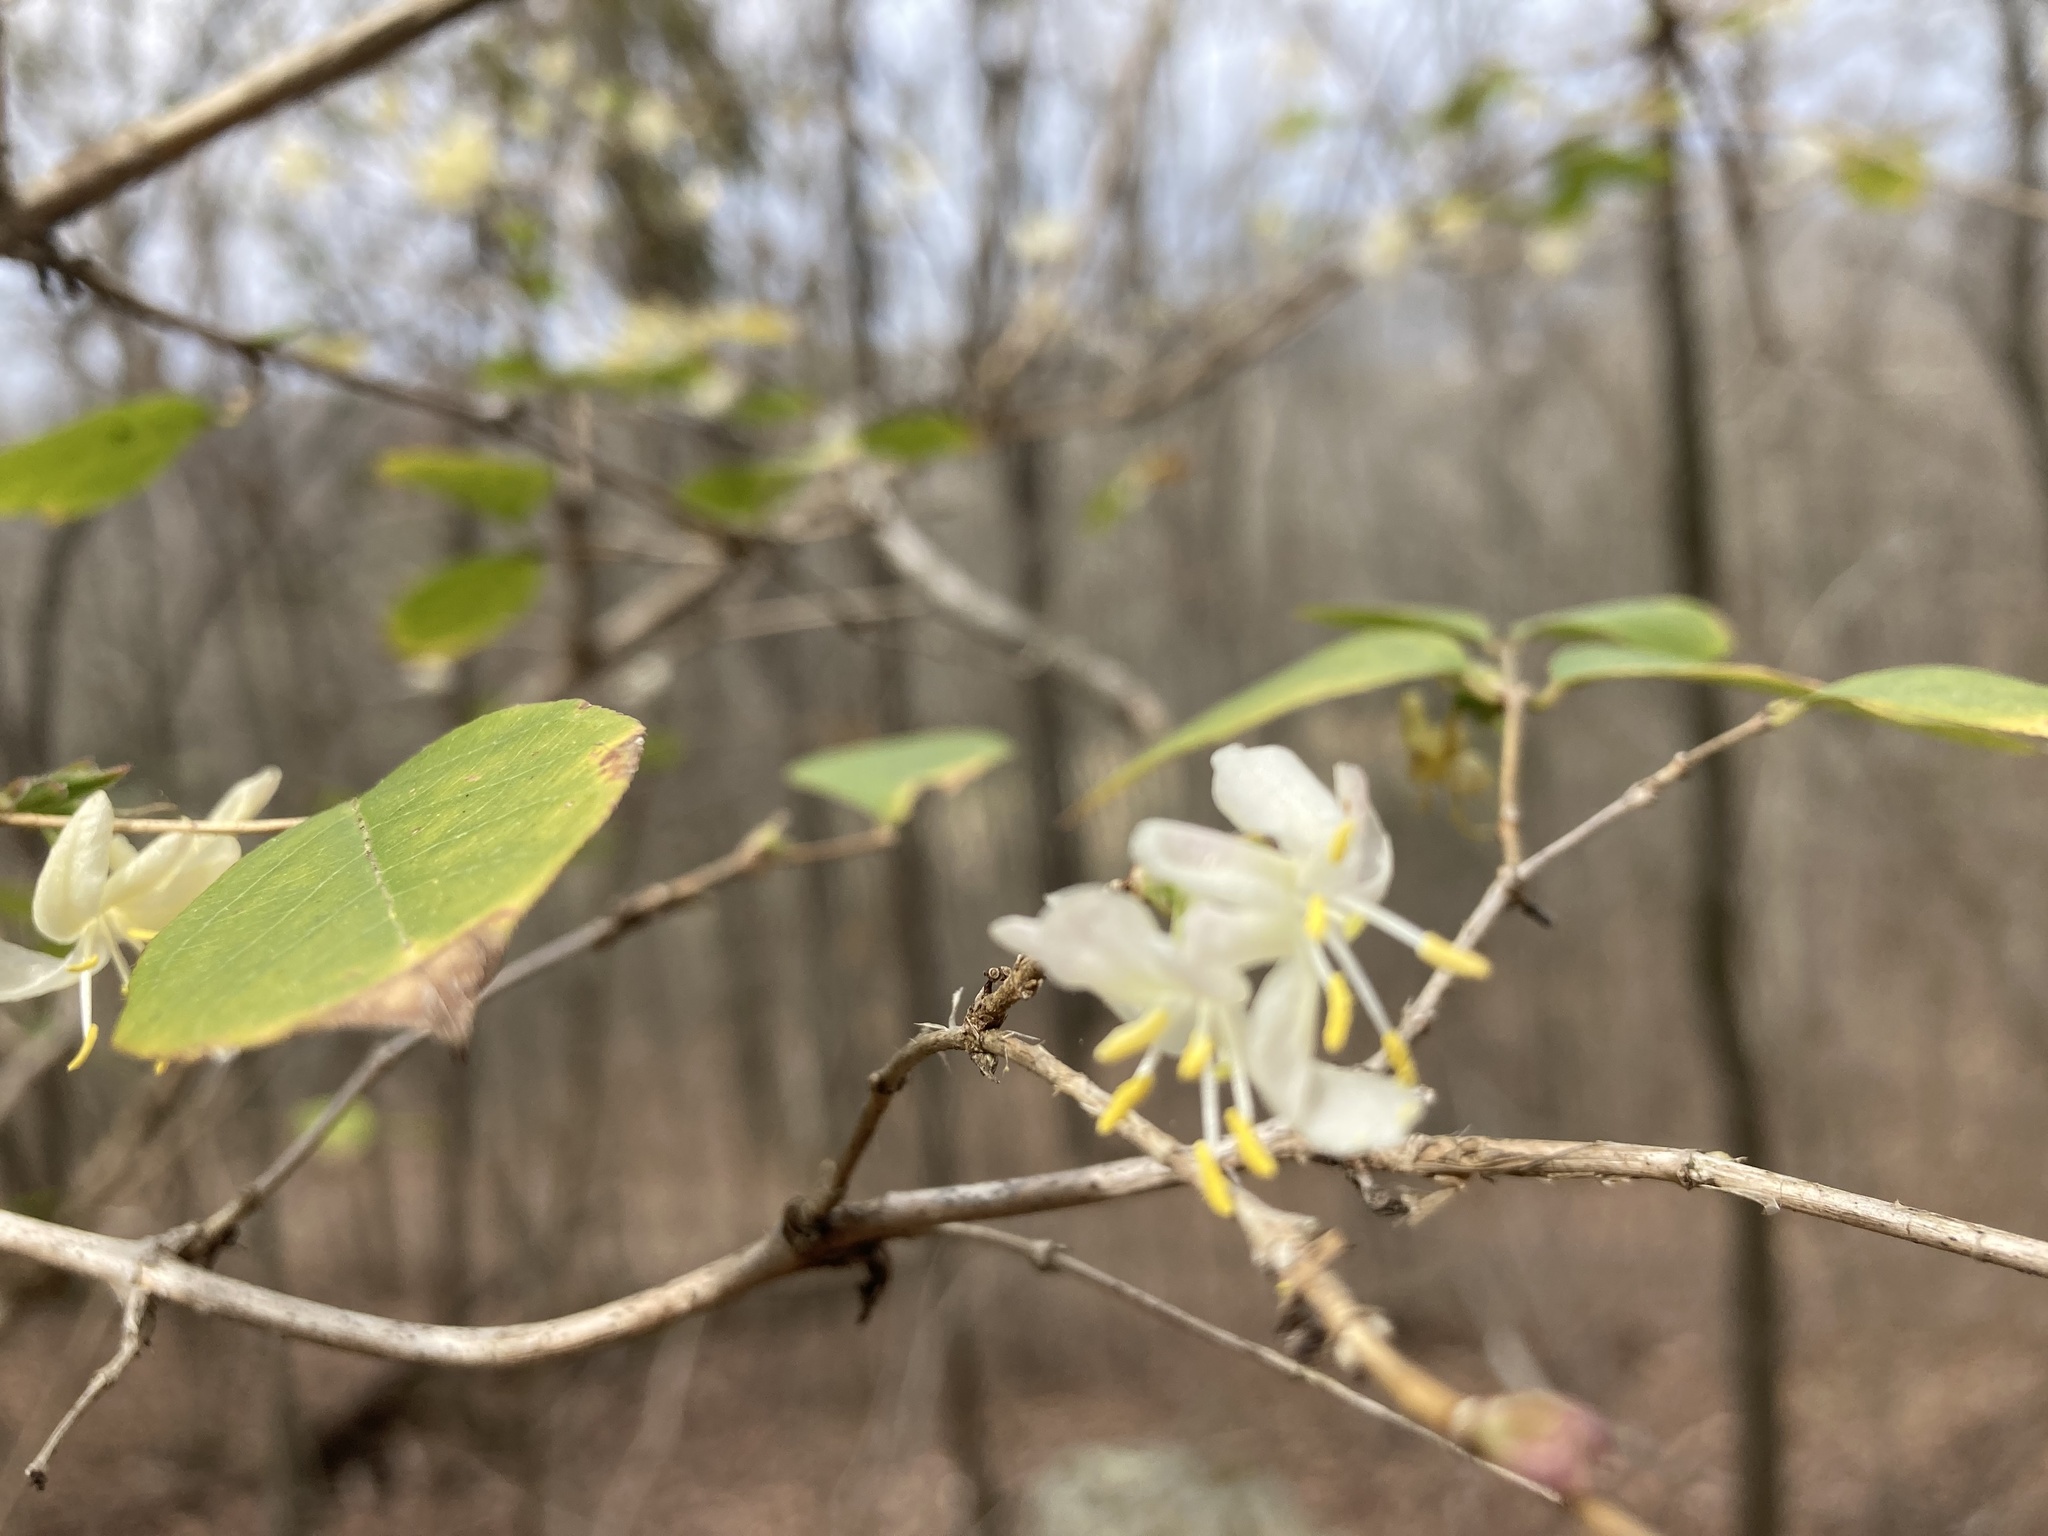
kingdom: Plantae
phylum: Tracheophyta
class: Magnoliopsida
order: Dipsacales
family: Caprifoliaceae
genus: Lonicera
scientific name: Lonicera fragrantissima
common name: Fragrant honeysuckle
